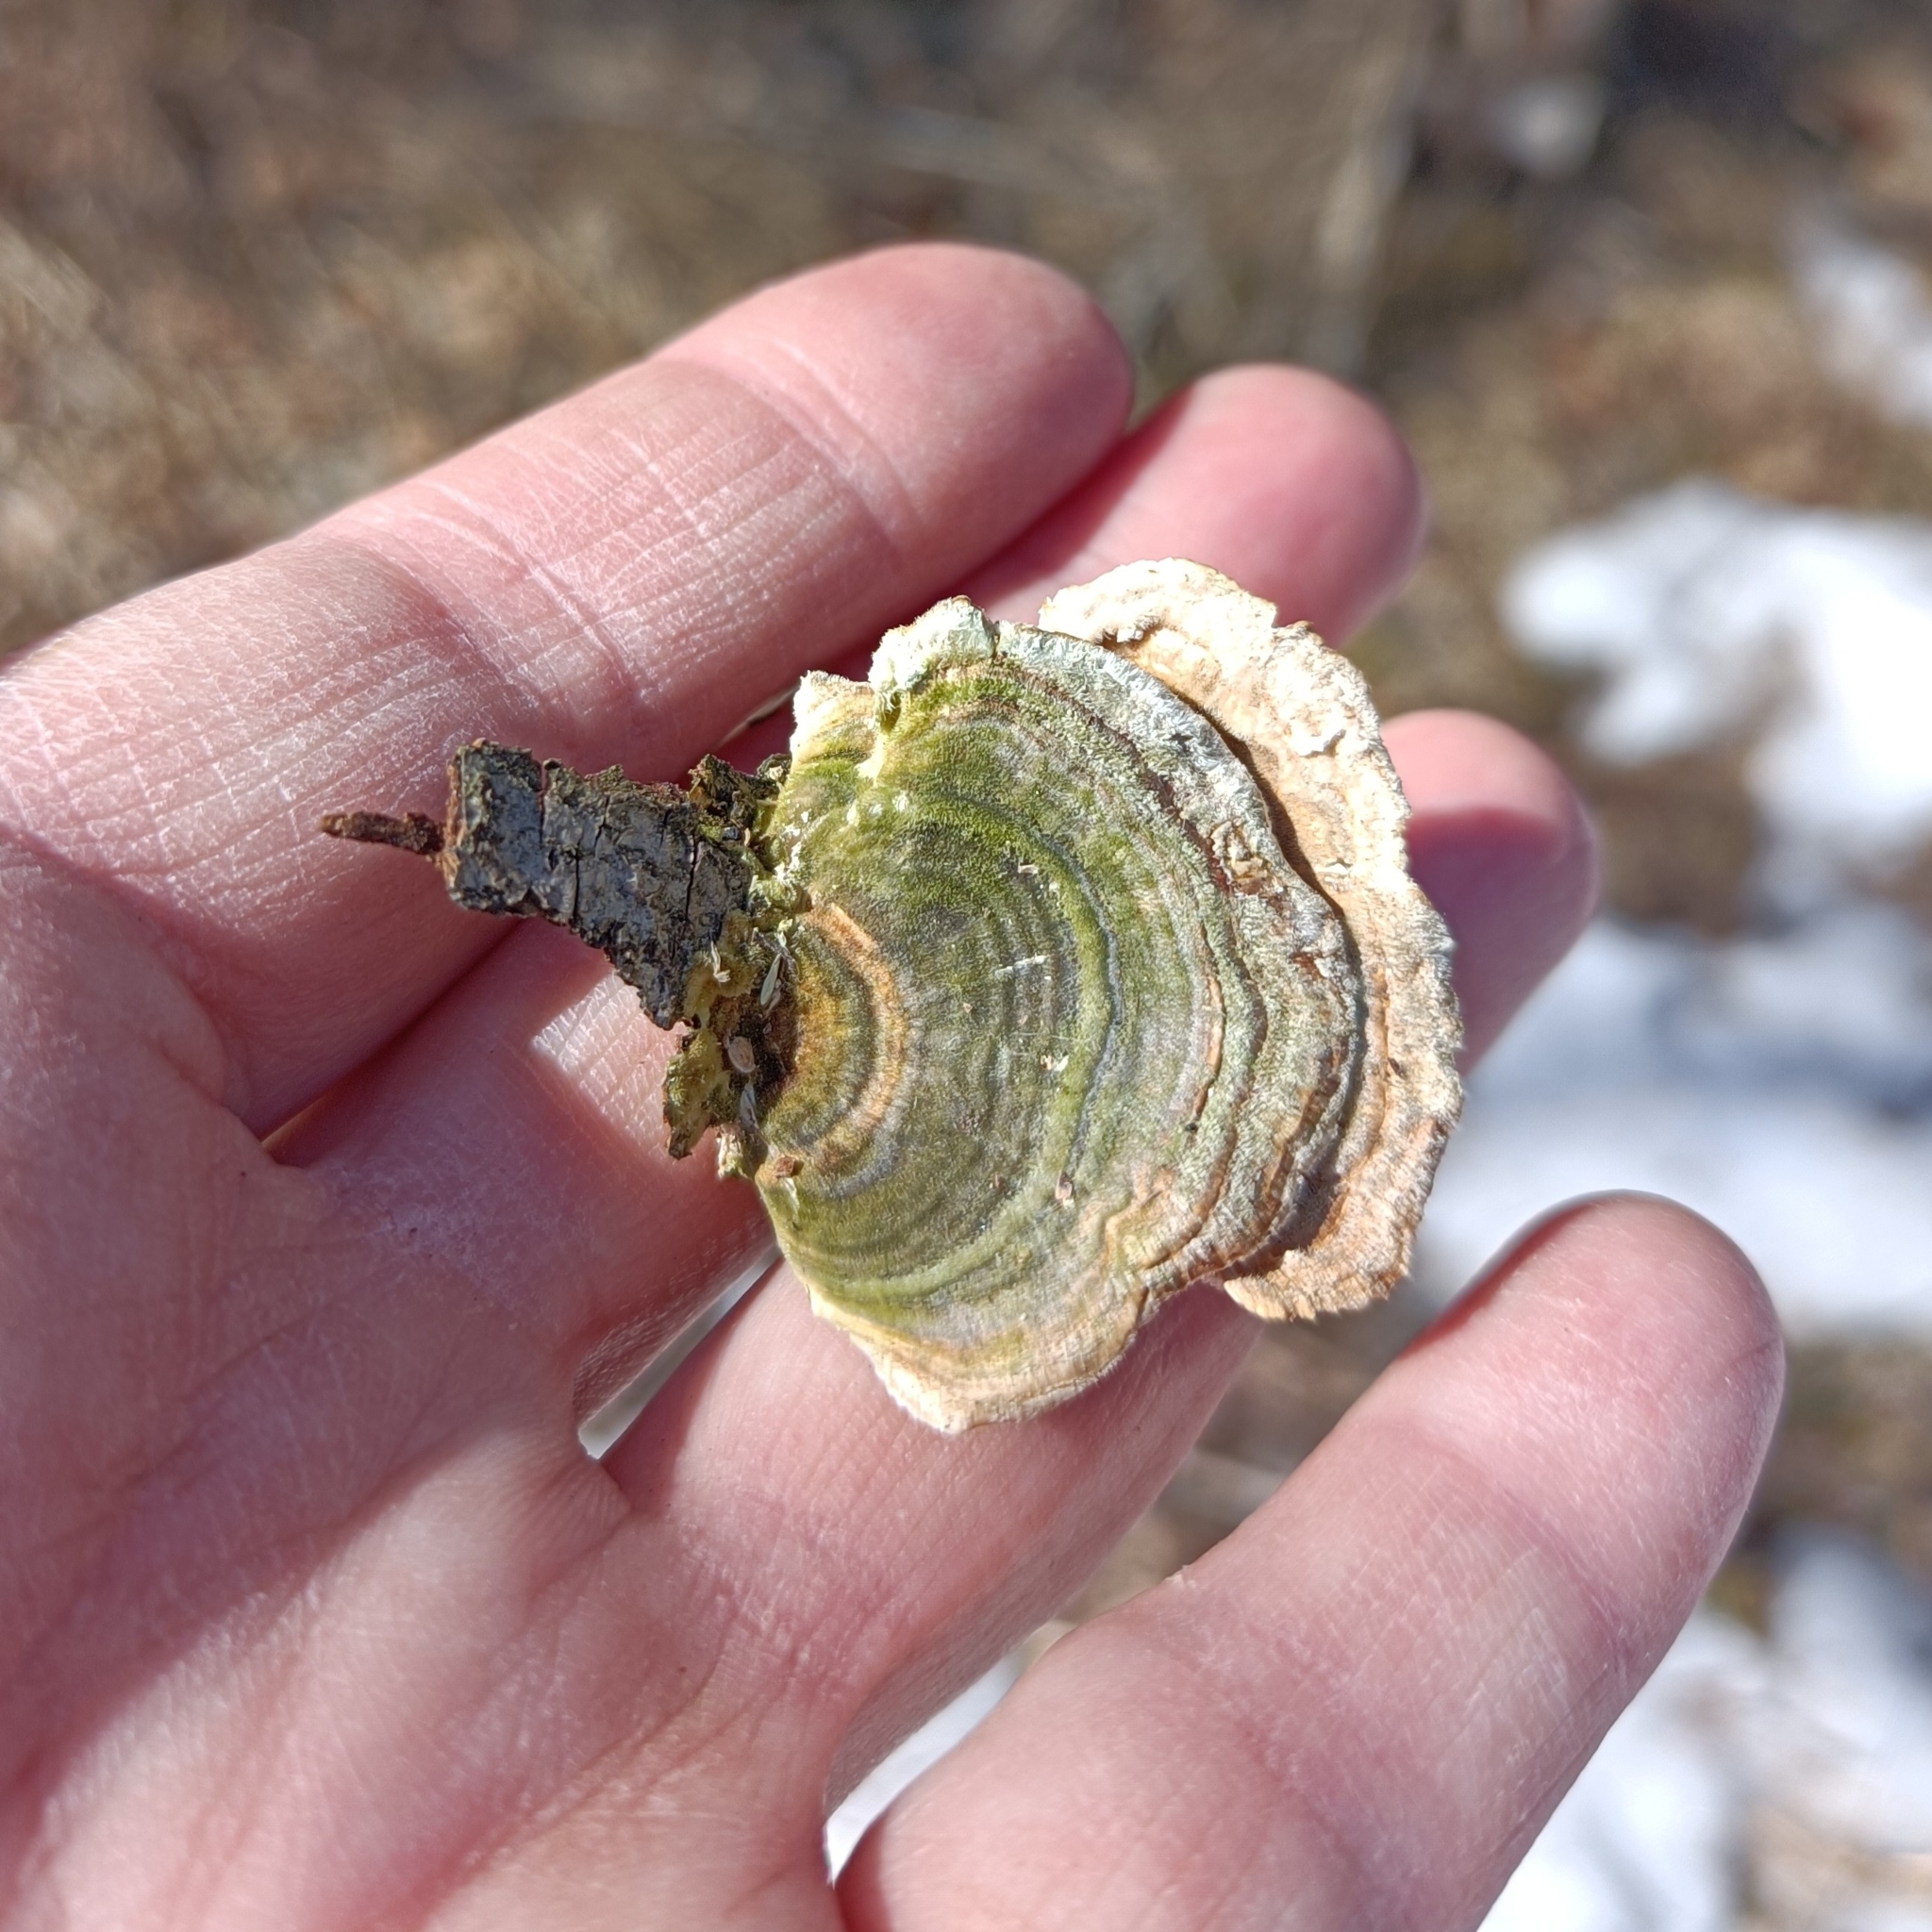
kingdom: Fungi
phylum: Basidiomycota
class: Agaricomycetes
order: Polyporales
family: Polyporaceae
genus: Trametes
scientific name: Trametes versicolor
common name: Turkeytail
